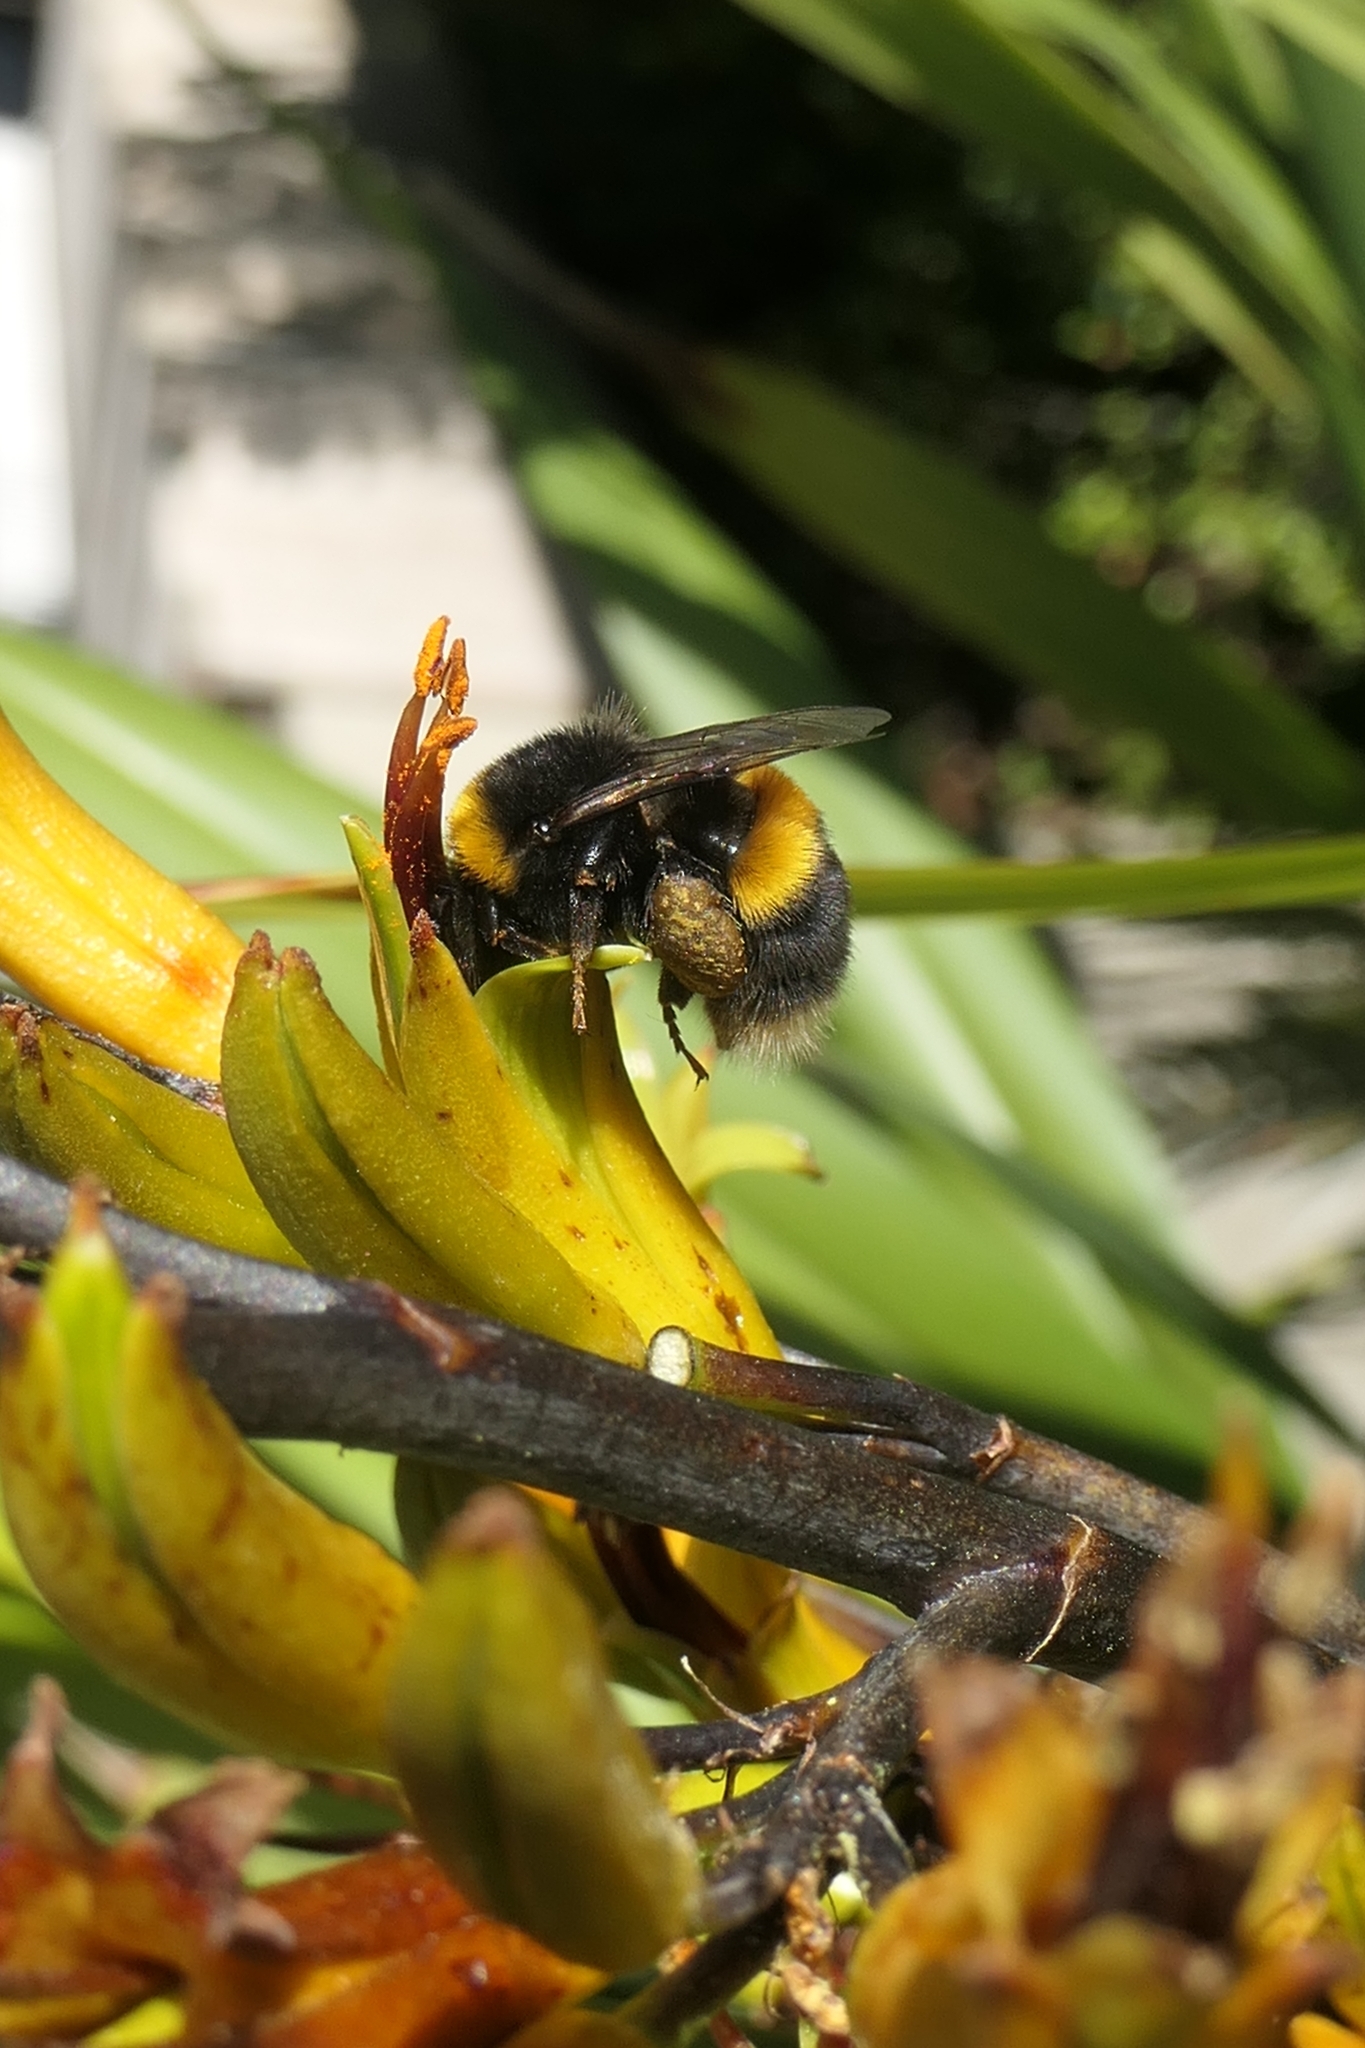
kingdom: Animalia
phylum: Arthropoda
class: Insecta
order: Hymenoptera
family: Apidae
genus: Bombus
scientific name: Bombus terrestris
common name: Buff-tailed bumblebee
